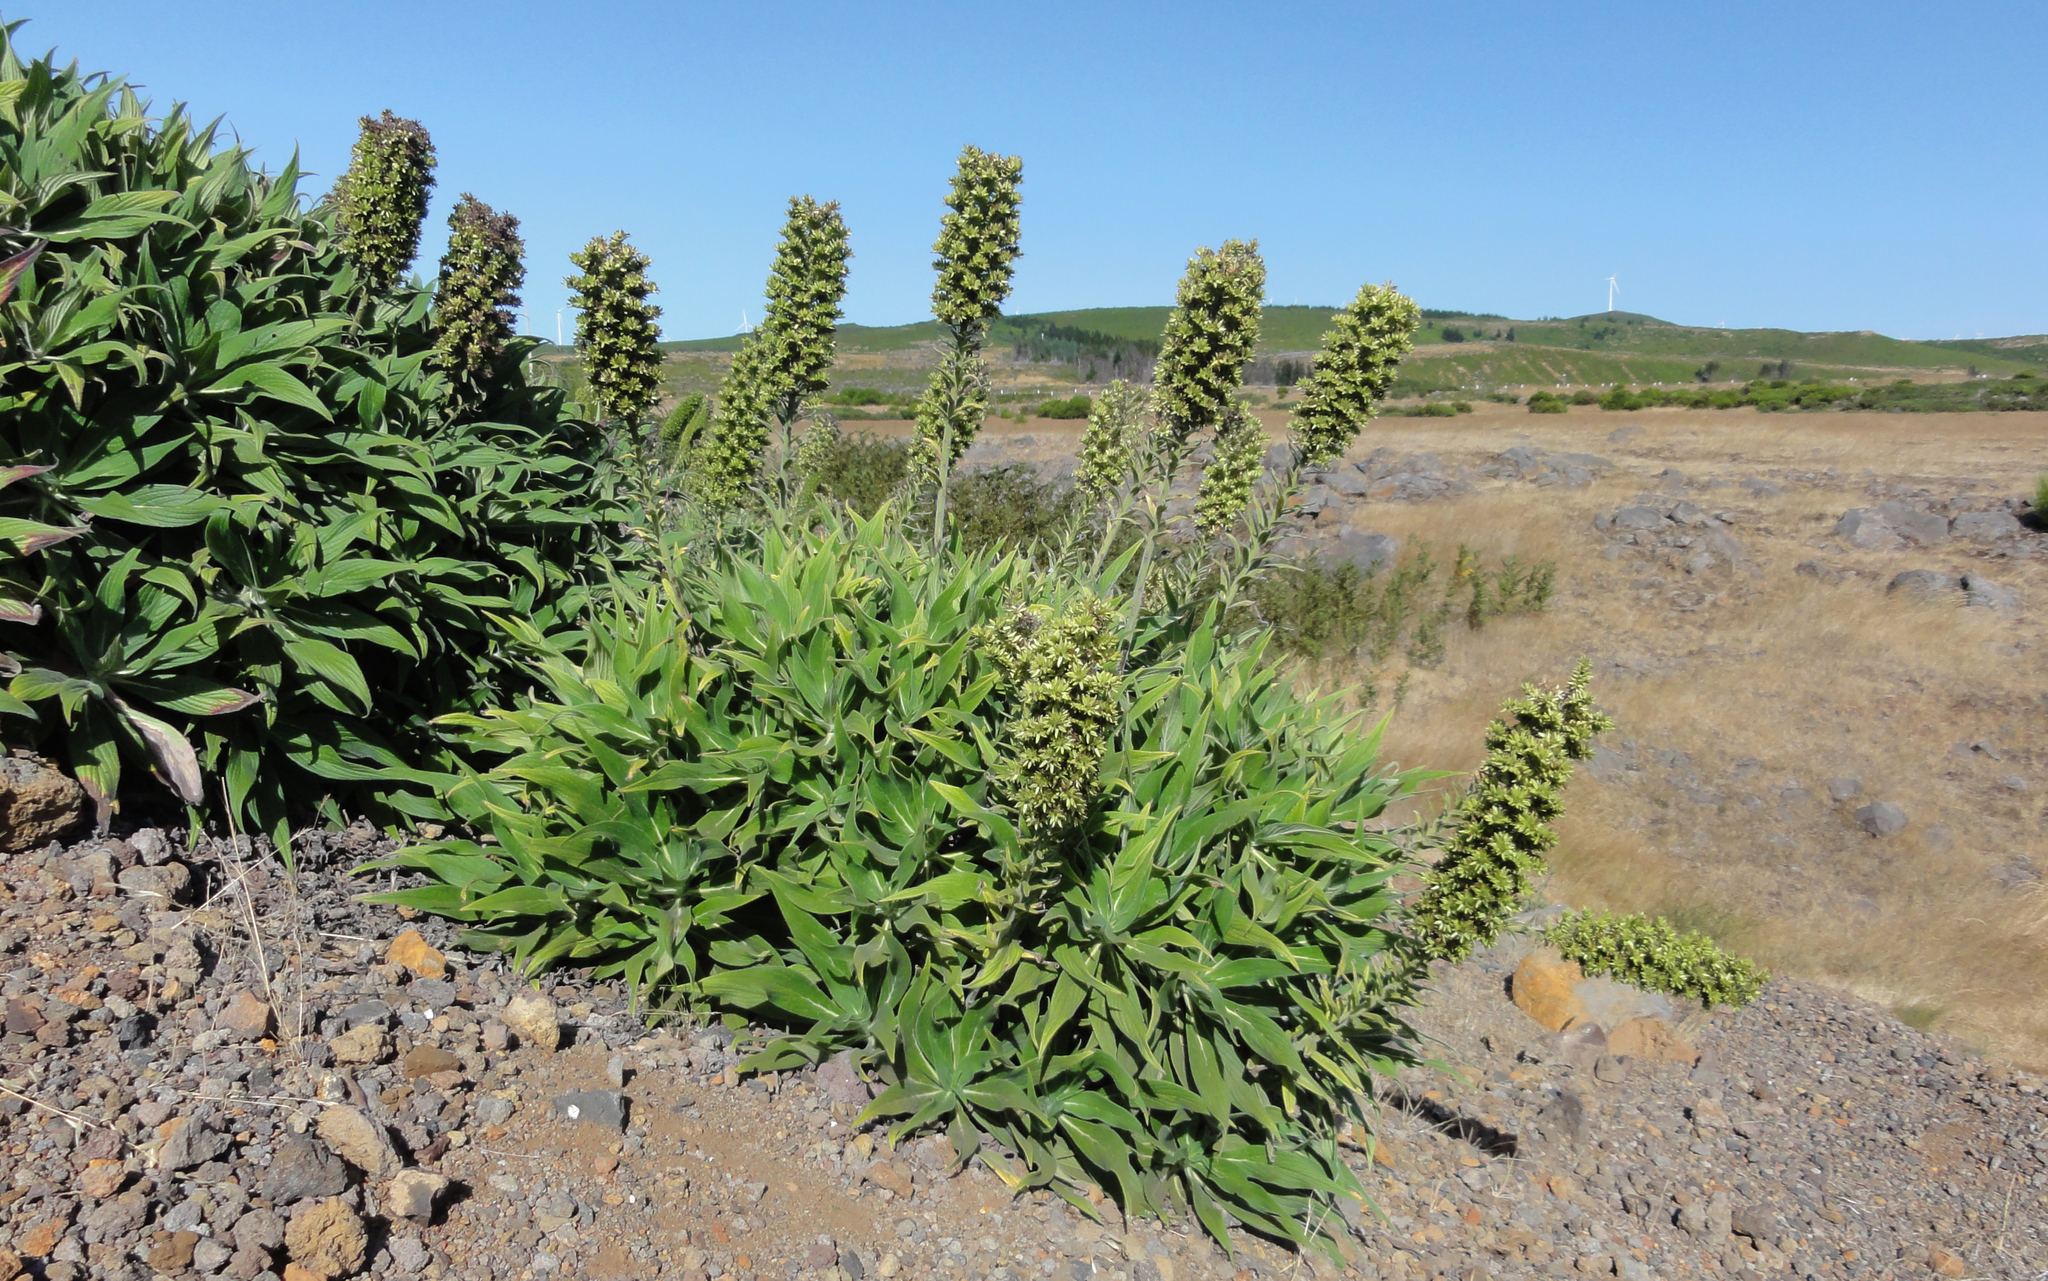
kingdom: Plantae
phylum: Tracheophyta
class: Magnoliopsida
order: Boraginales
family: Boraginaceae
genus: Echium
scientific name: Echium candicans
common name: Pride of madeira
